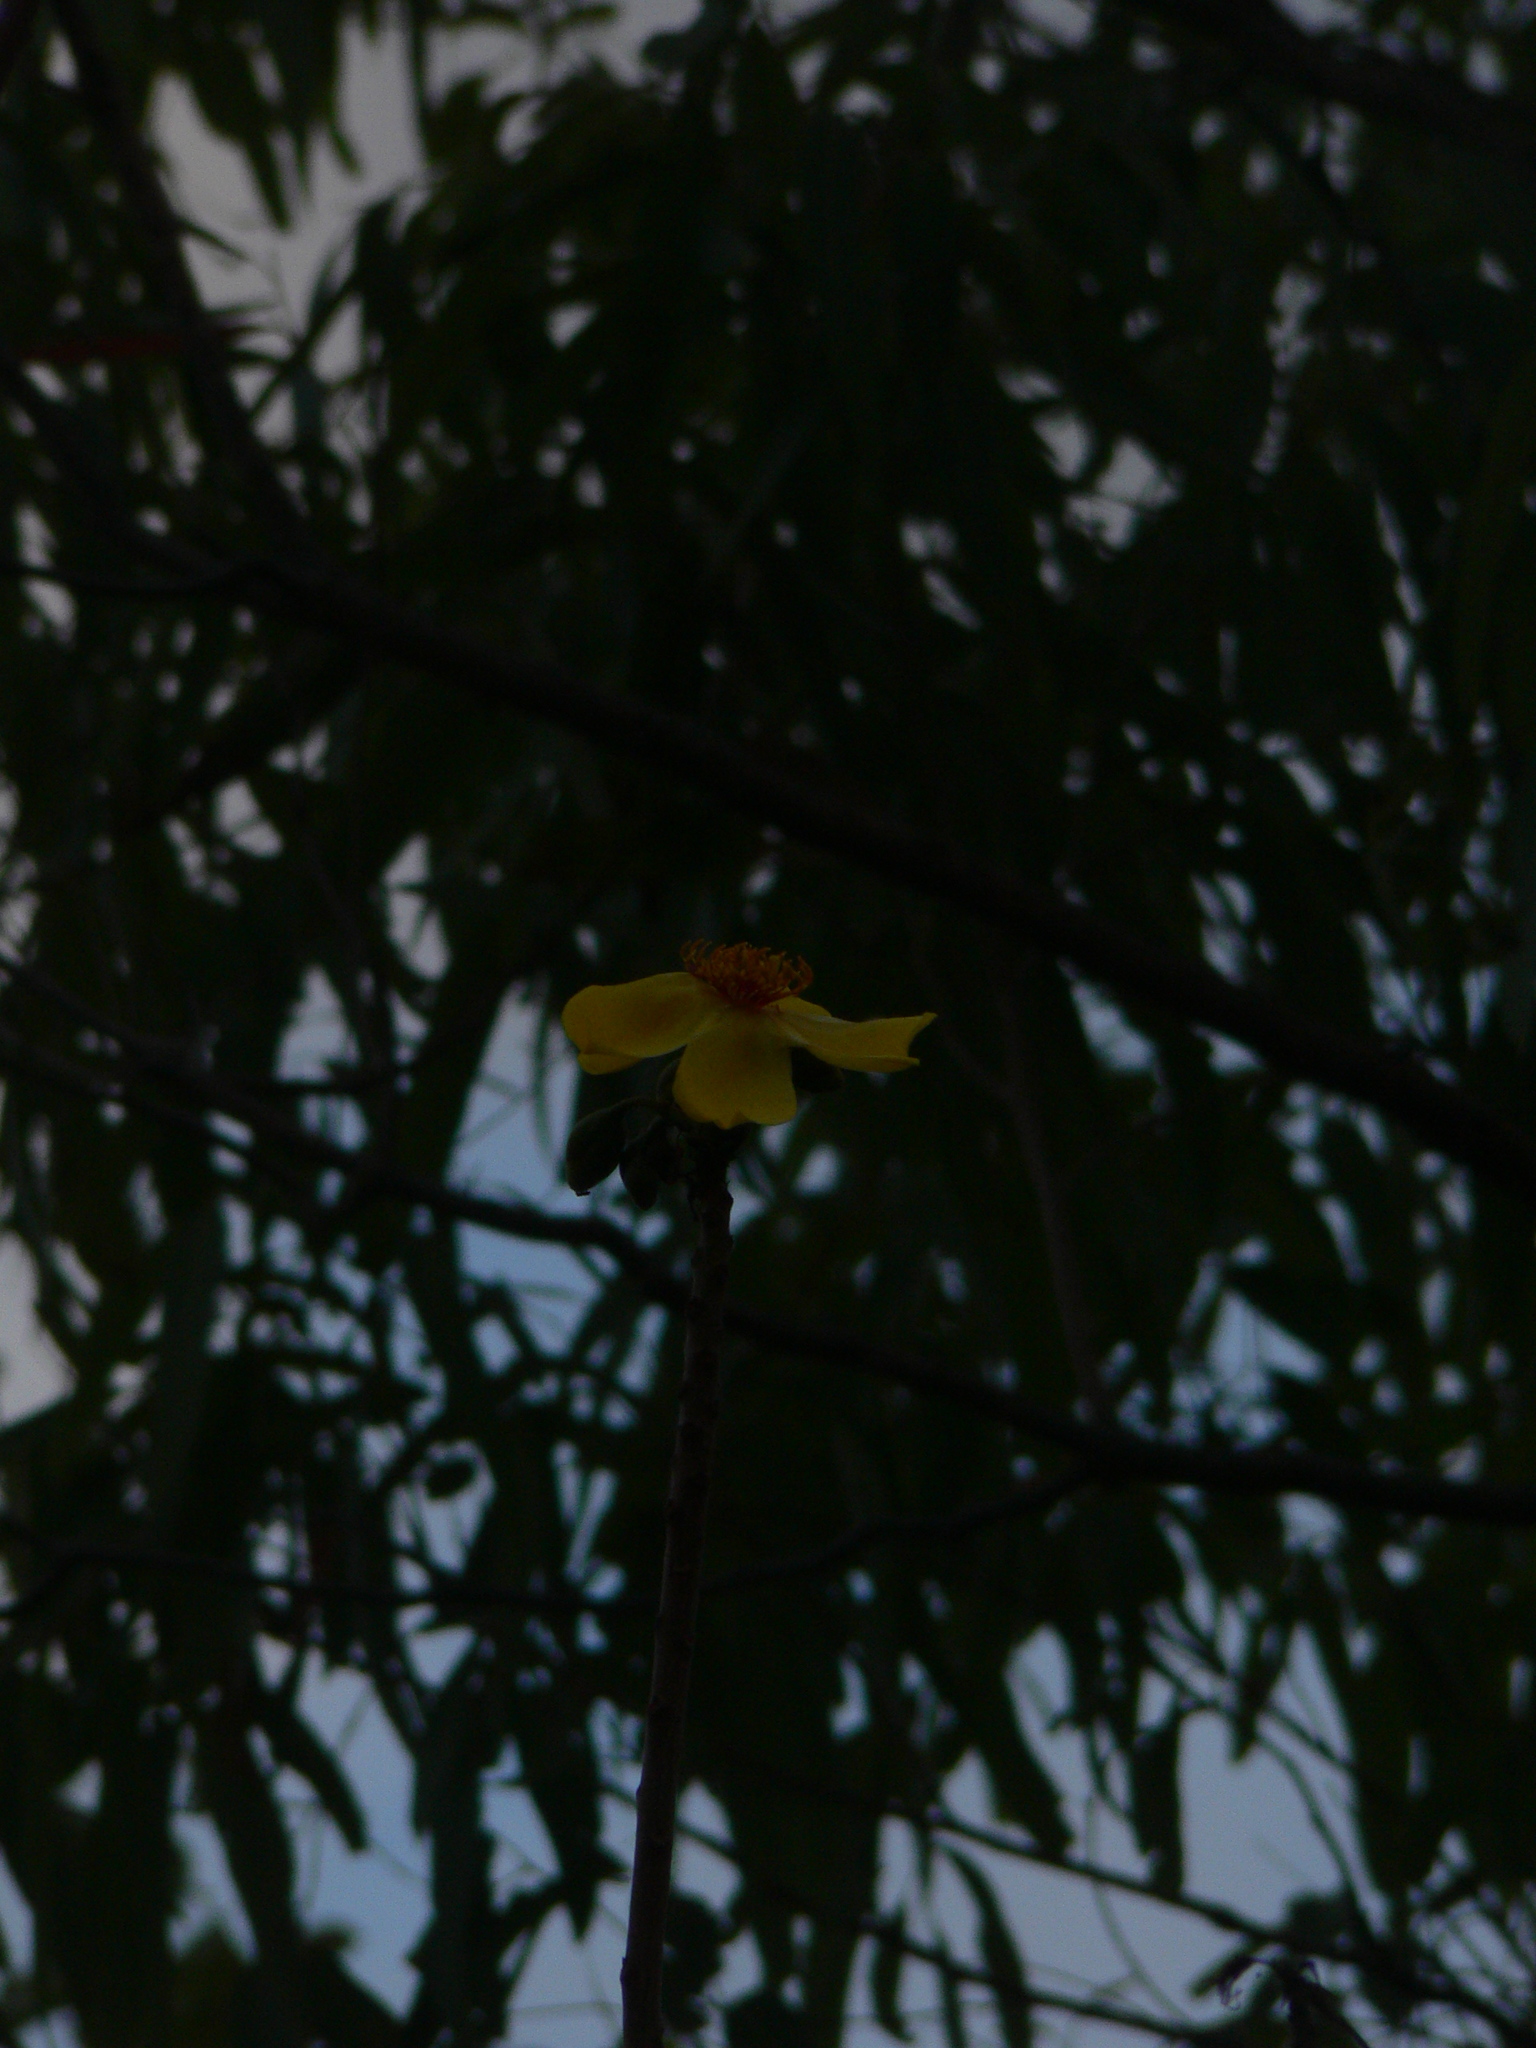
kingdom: Plantae
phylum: Tracheophyta
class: Magnoliopsida
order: Malvales
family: Cochlospermaceae
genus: Cochlospermum
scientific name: Cochlospermum gillivraei
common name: Cottontree
